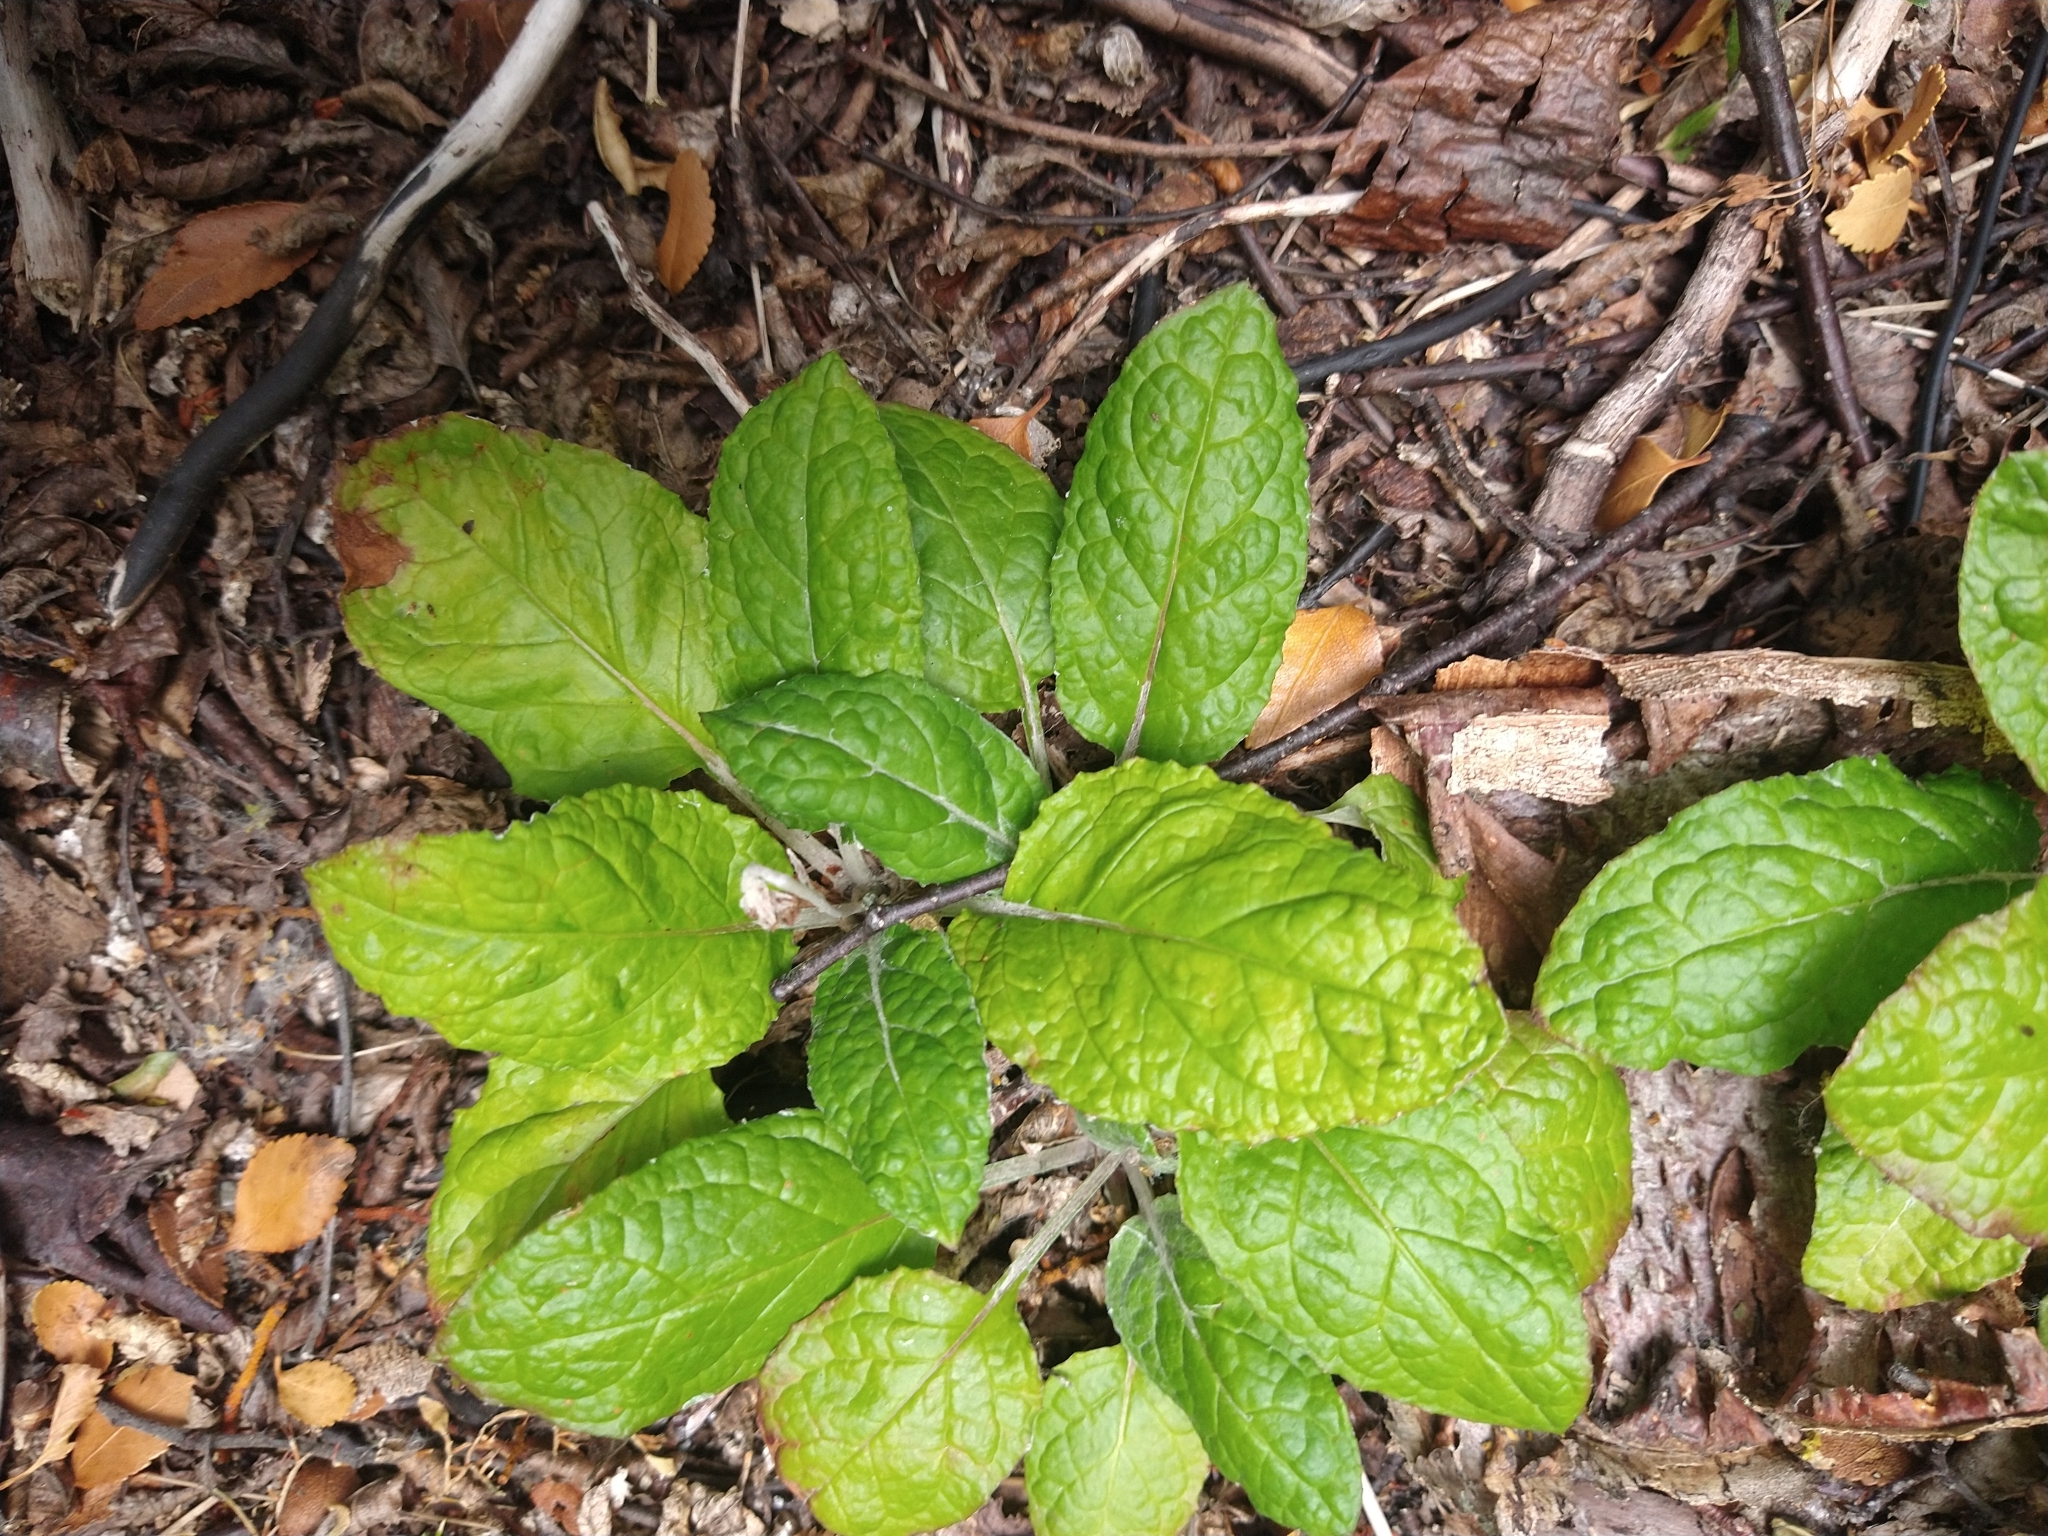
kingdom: Plantae
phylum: Tracheophyta
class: Magnoliopsida
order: Asterales
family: Asteraceae
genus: Adenocaulon
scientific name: Adenocaulon chilense
